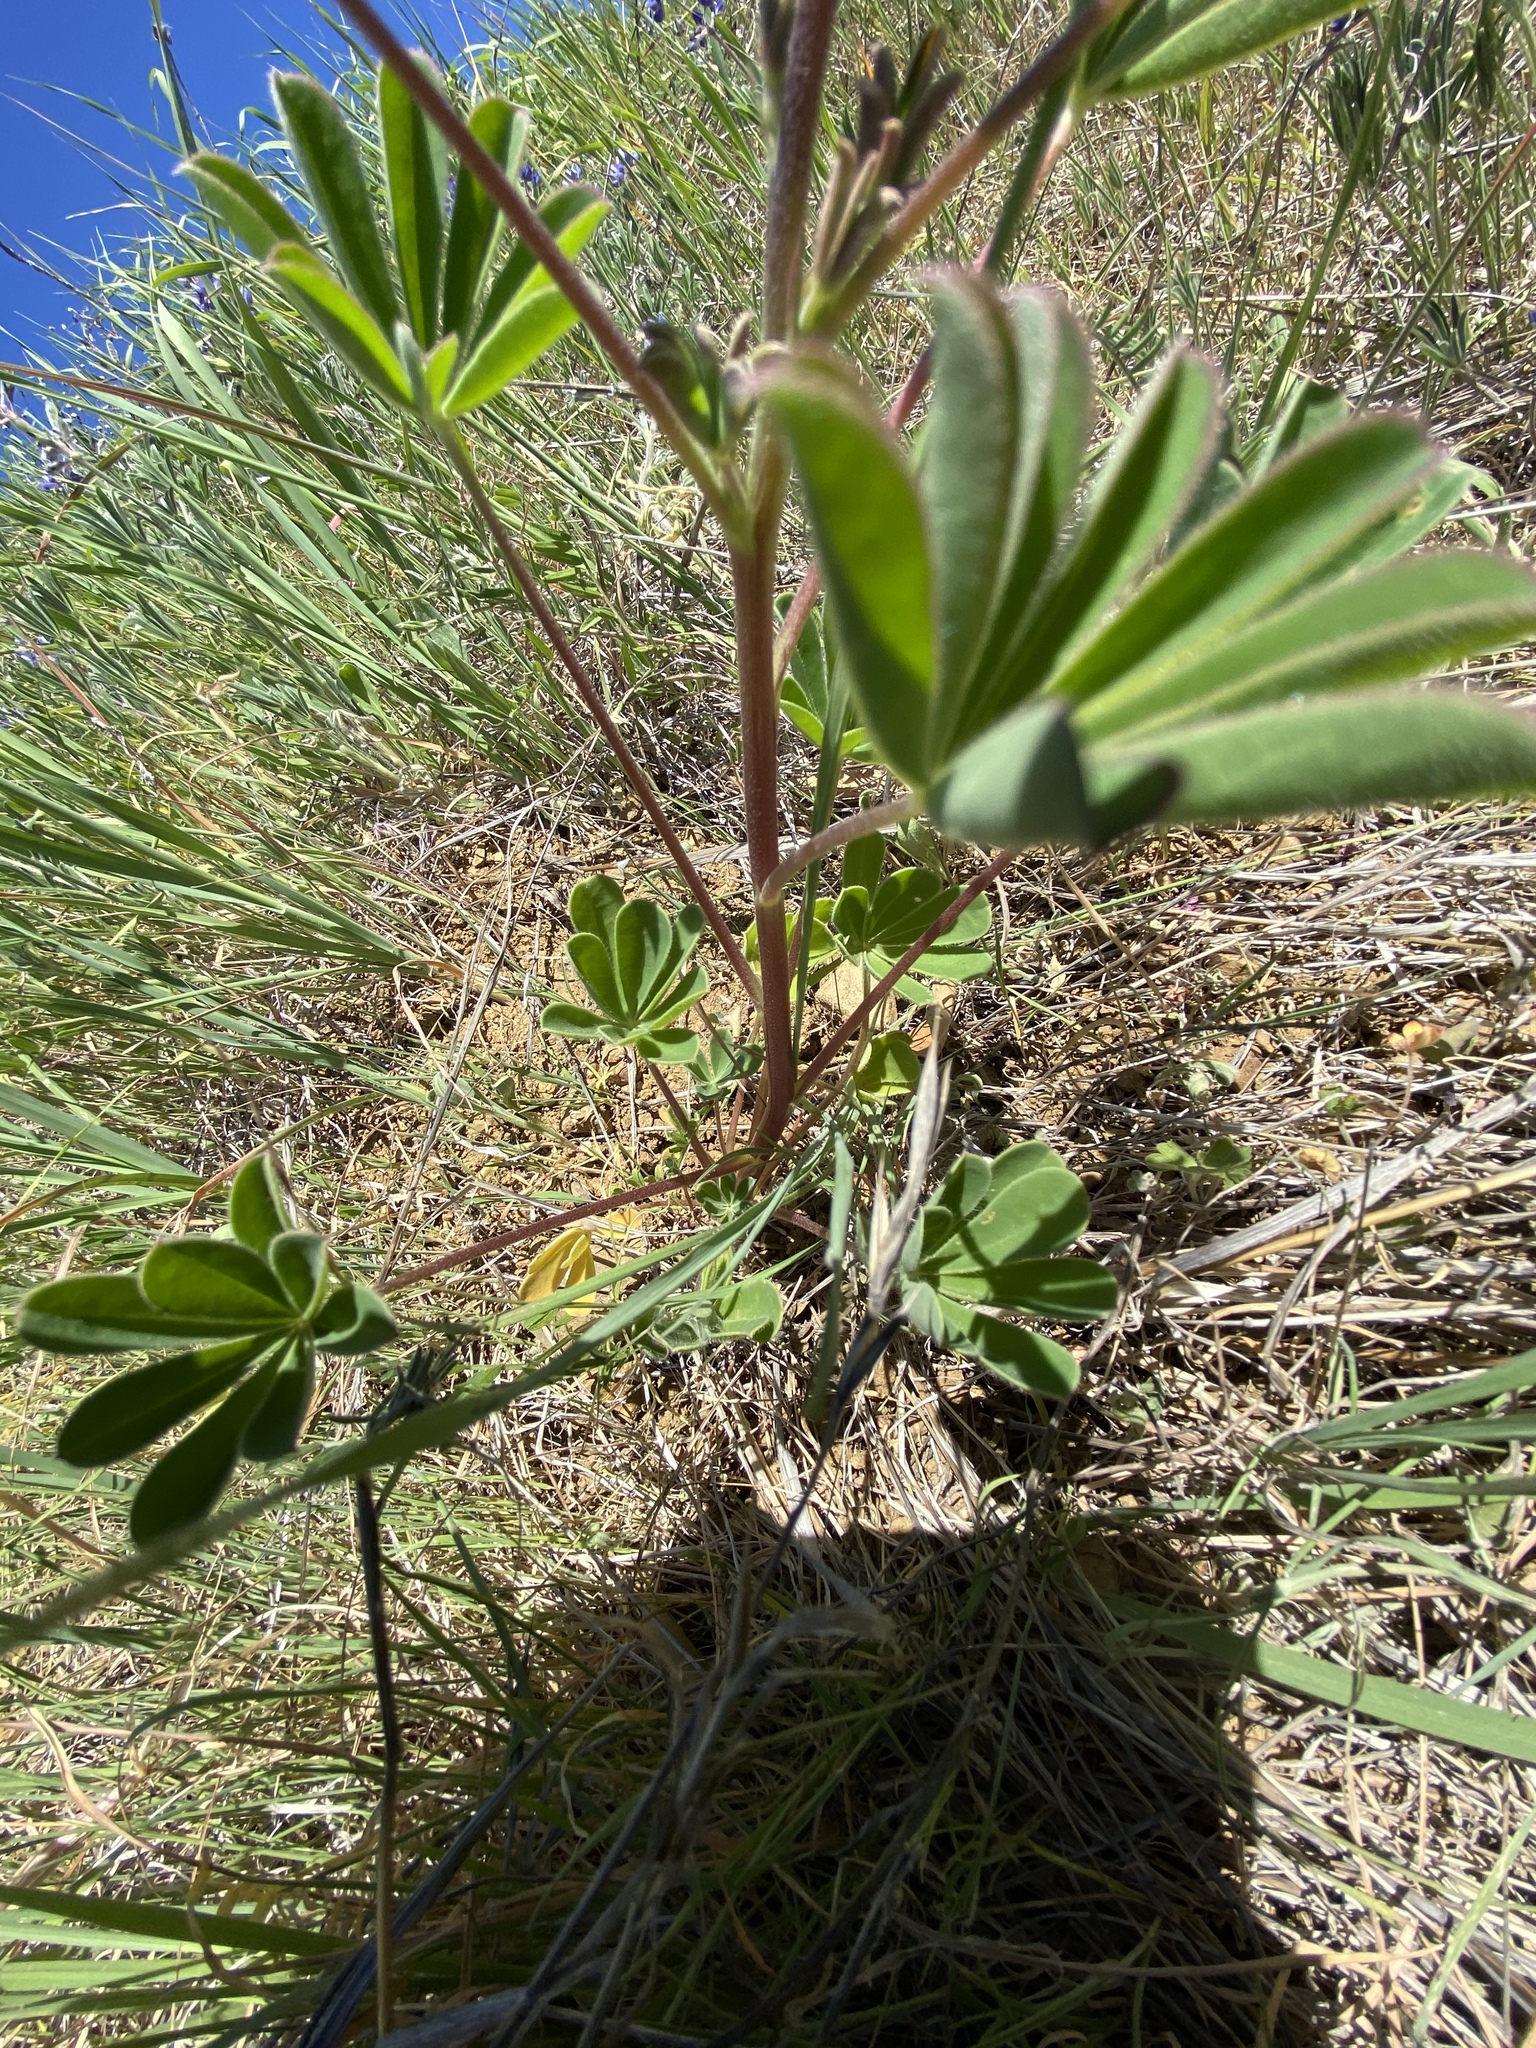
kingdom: Plantae
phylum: Tracheophyta
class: Magnoliopsida
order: Fabales
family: Fabaceae
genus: Lupinus
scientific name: Lupinus succulentus
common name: Arroyo lupine
